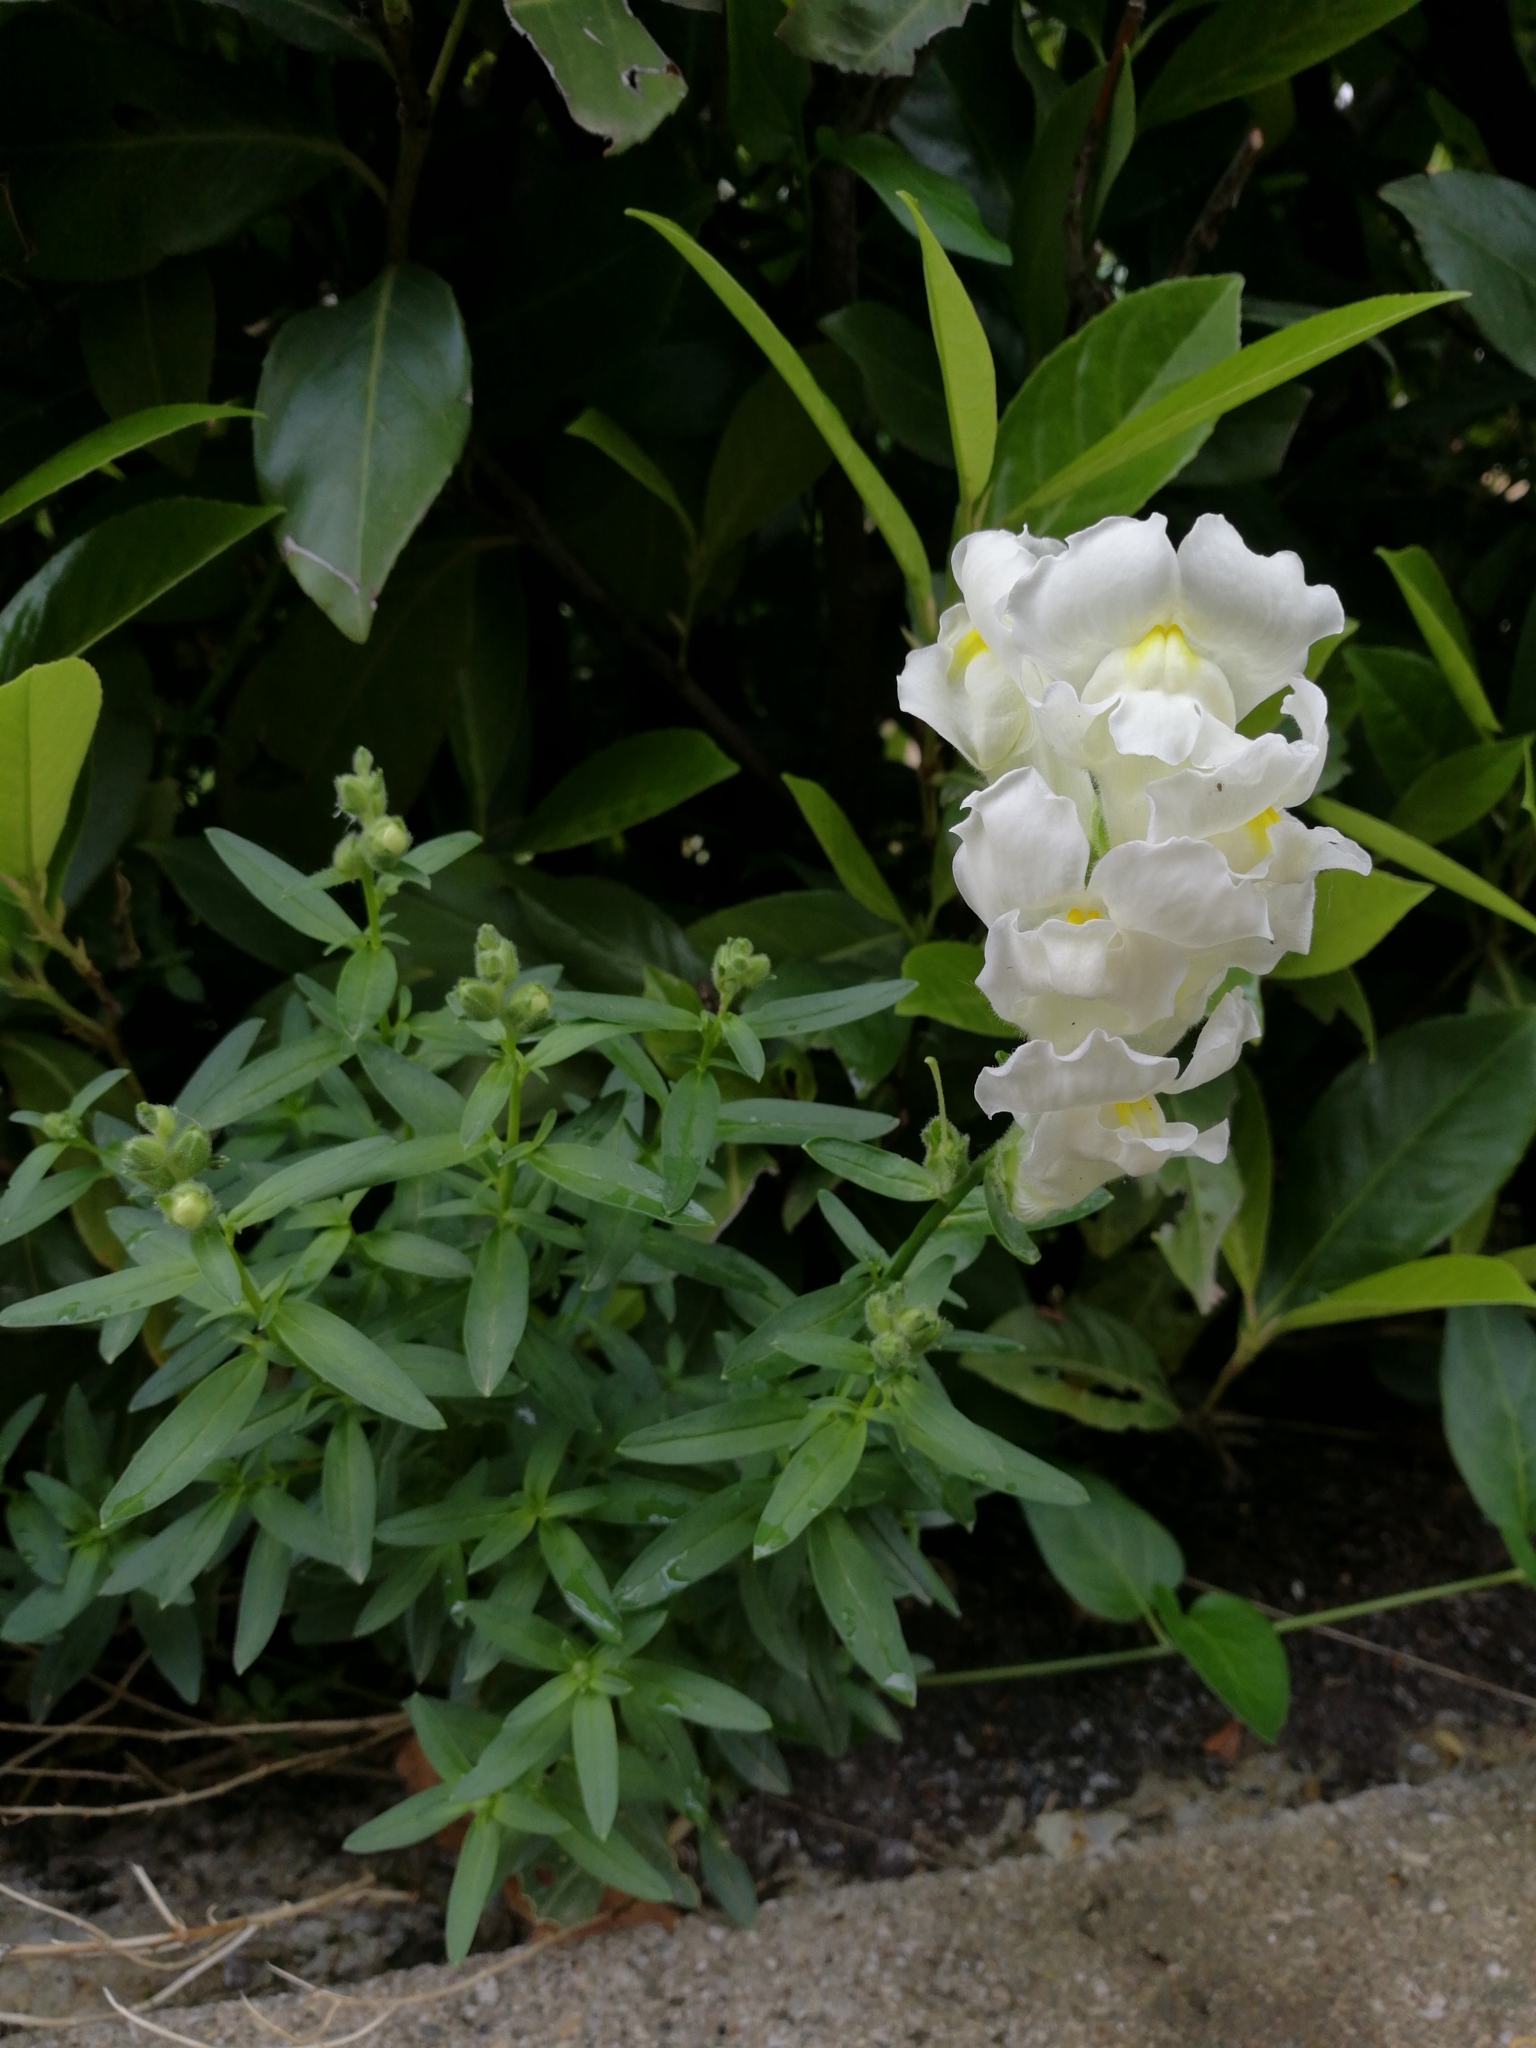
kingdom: Plantae
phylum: Tracheophyta
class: Magnoliopsida
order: Lamiales
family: Plantaginaceae
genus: Antirrhinum
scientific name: Antirrhinum majus
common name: Snapdragon
